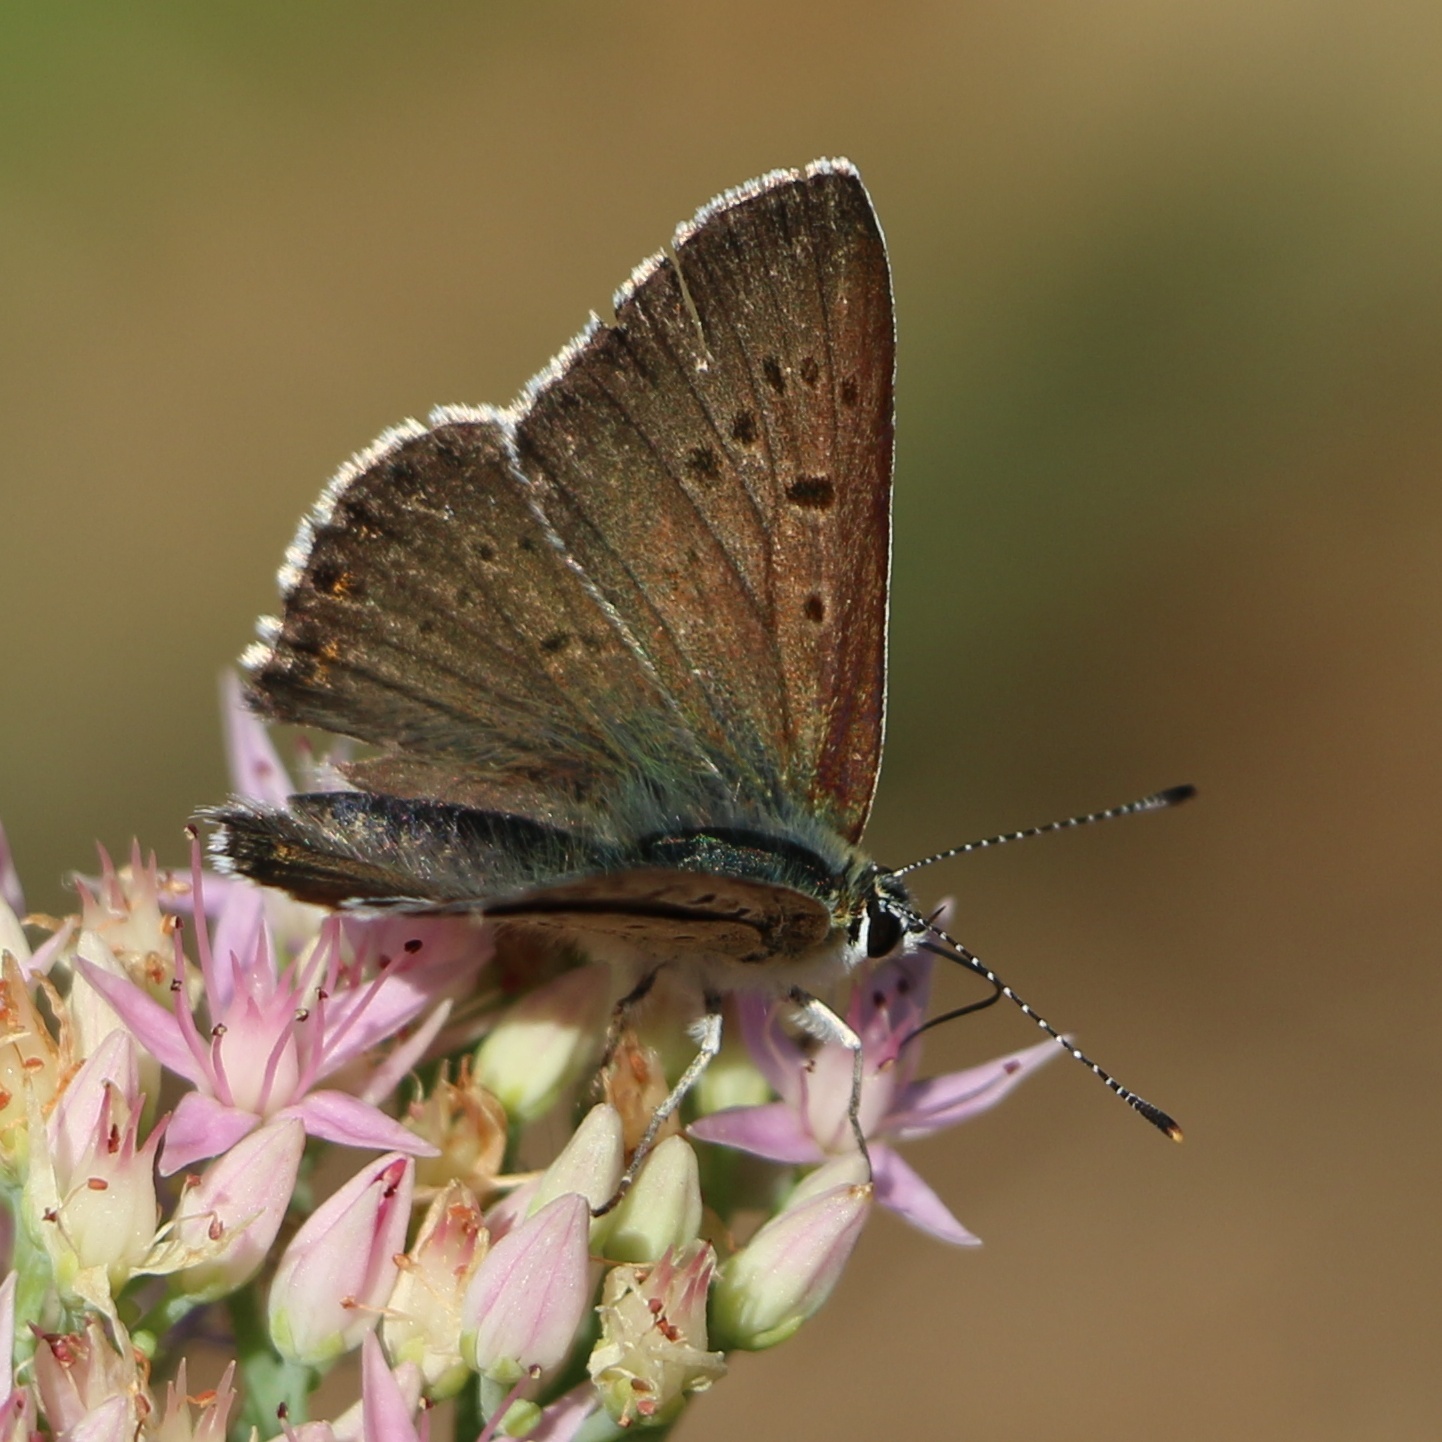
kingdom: Animalia
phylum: Arthropoda
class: Insecta
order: Lepidoptera
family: Lycaenidae
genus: Loweia
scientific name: Loweia tityrus
